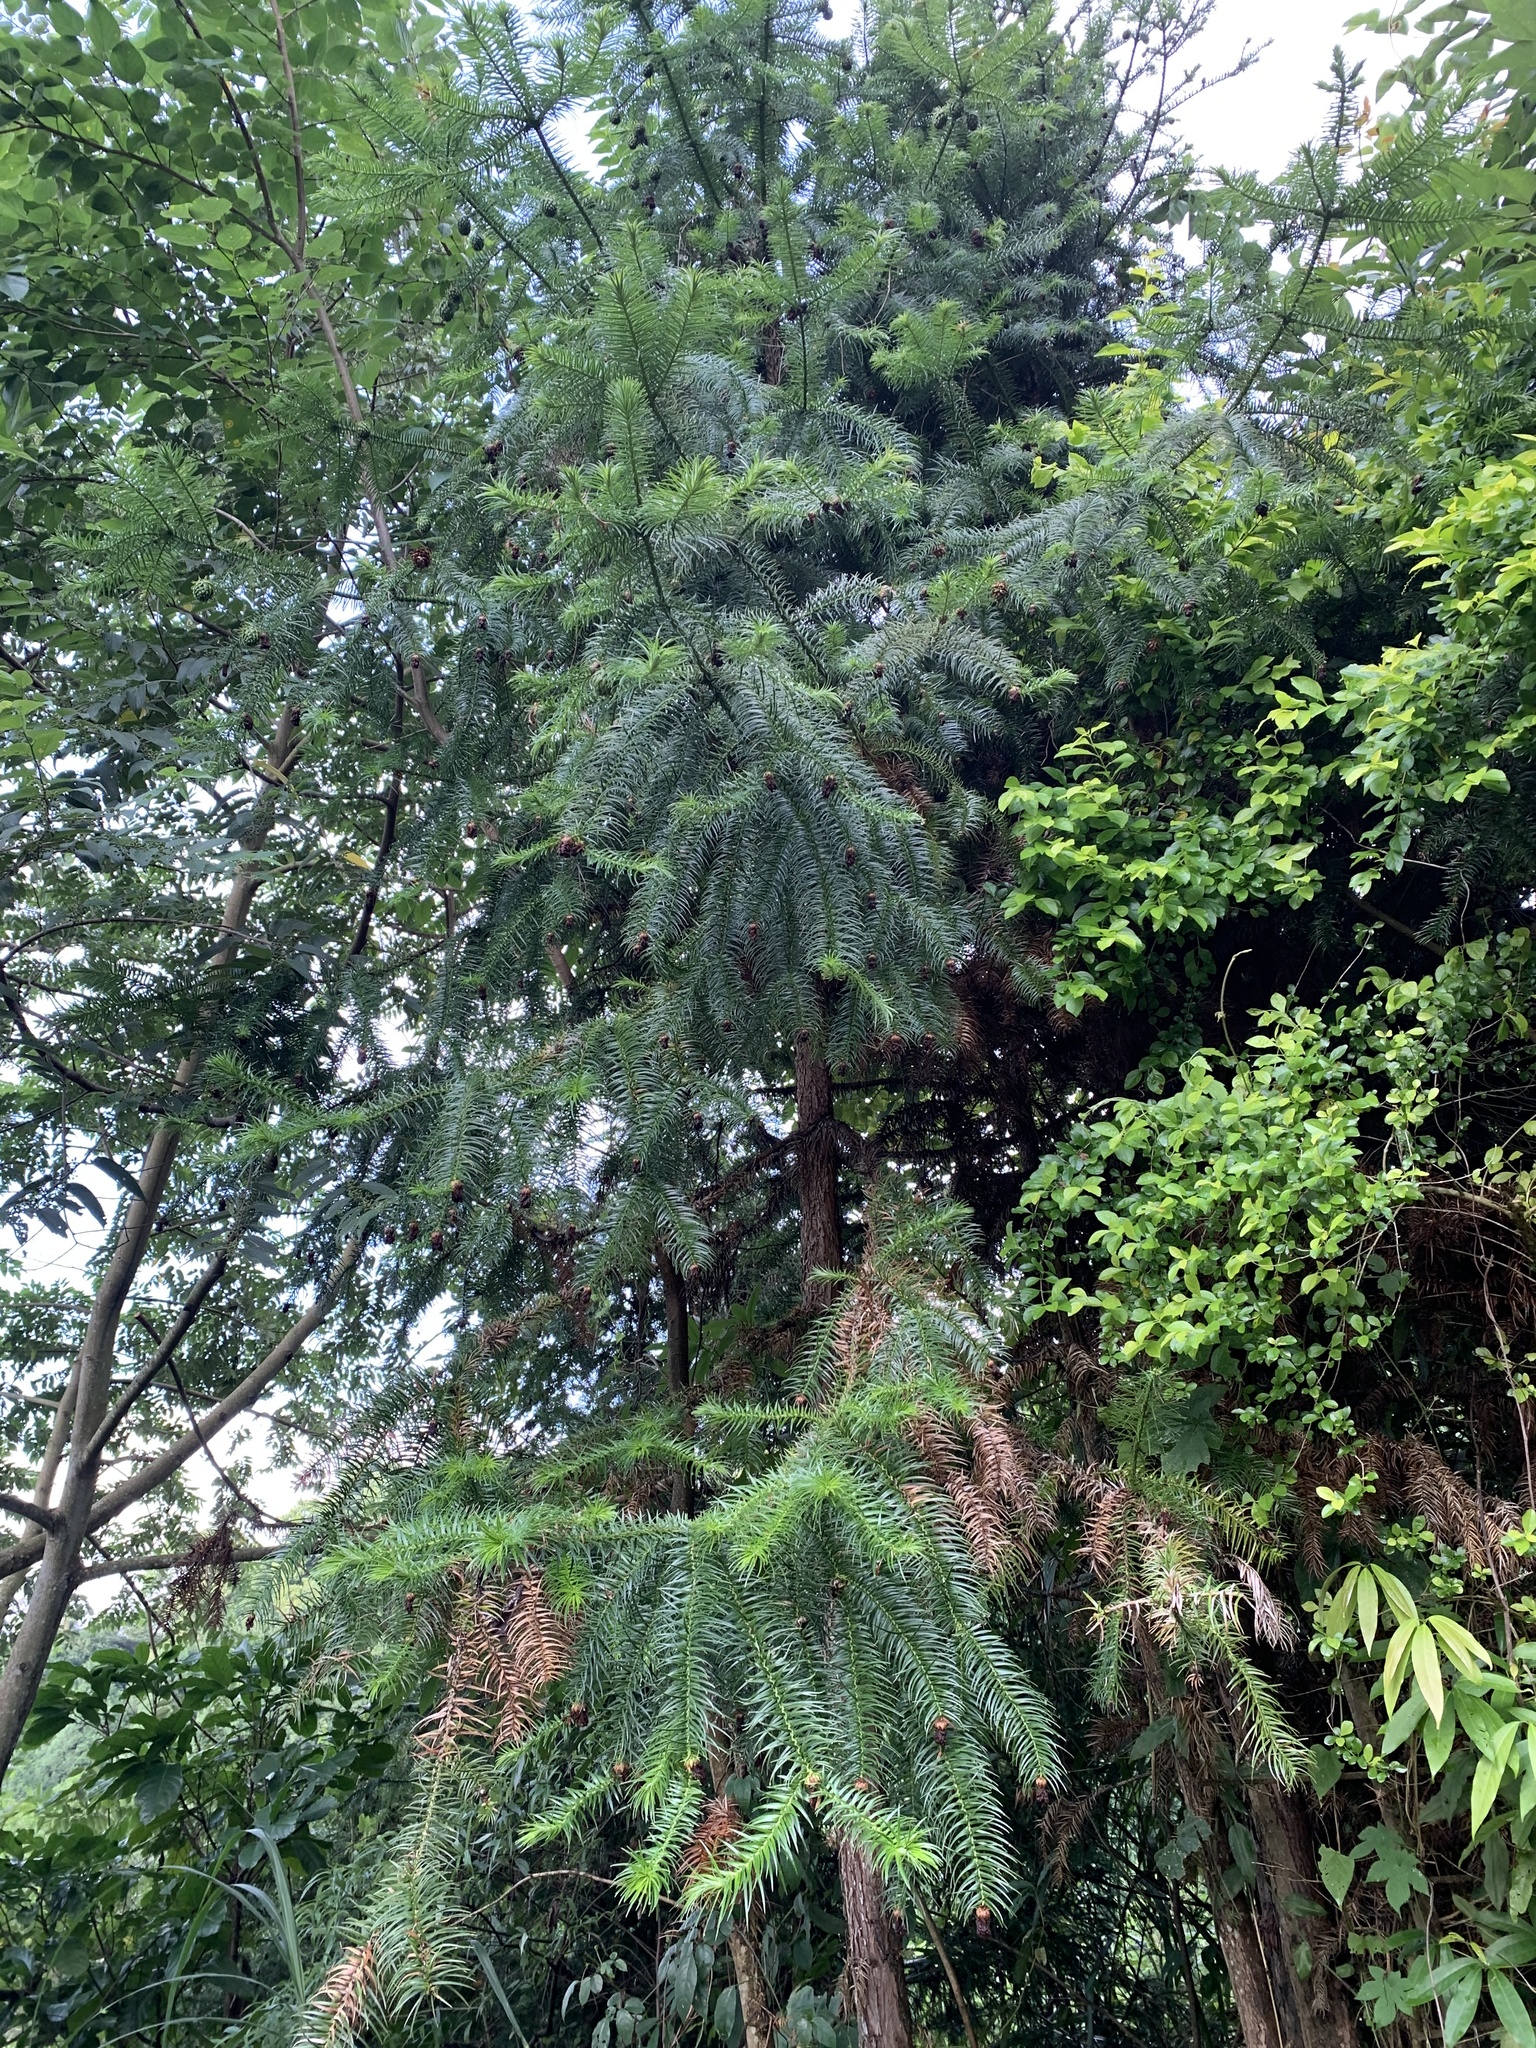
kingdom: Plantae
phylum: Tracheophyta
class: Pinopsida
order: Pinales
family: Cupressaceae
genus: Cunninghamia
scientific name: Cunninghamia lanceolata
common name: Chinese fir
